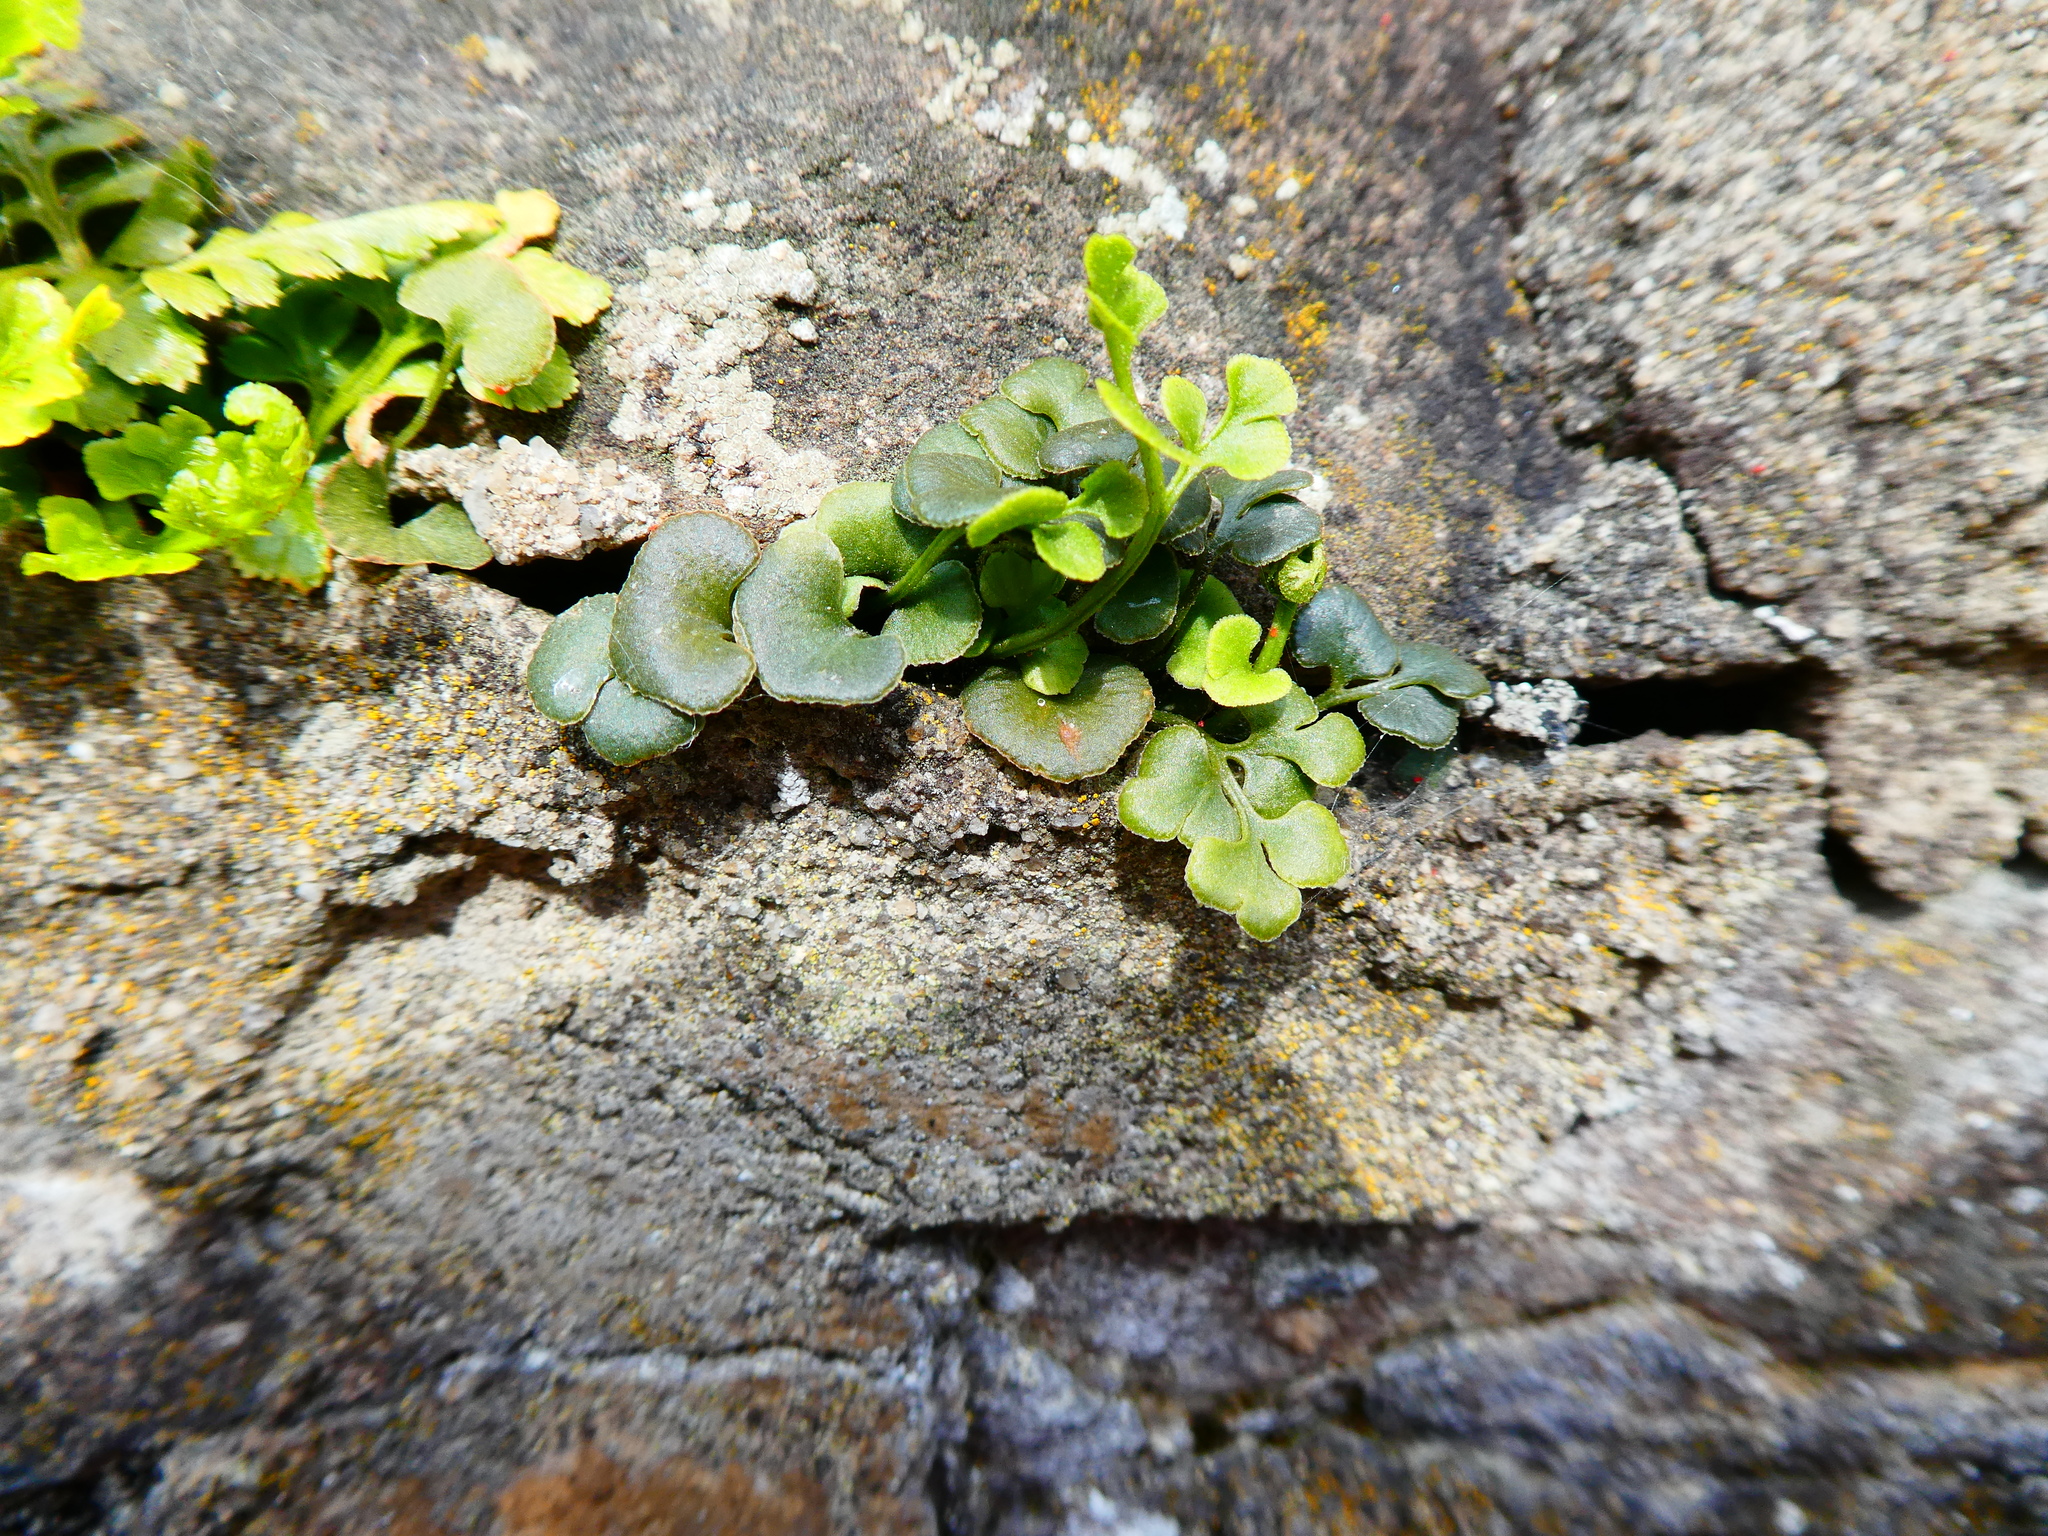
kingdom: Plantae
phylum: Tracheophyta
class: Polypodiopsida
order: Polypodiales
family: Aspleniaceae
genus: Asplenium
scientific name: Asplenium ruta-muraria
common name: Wall-rue
